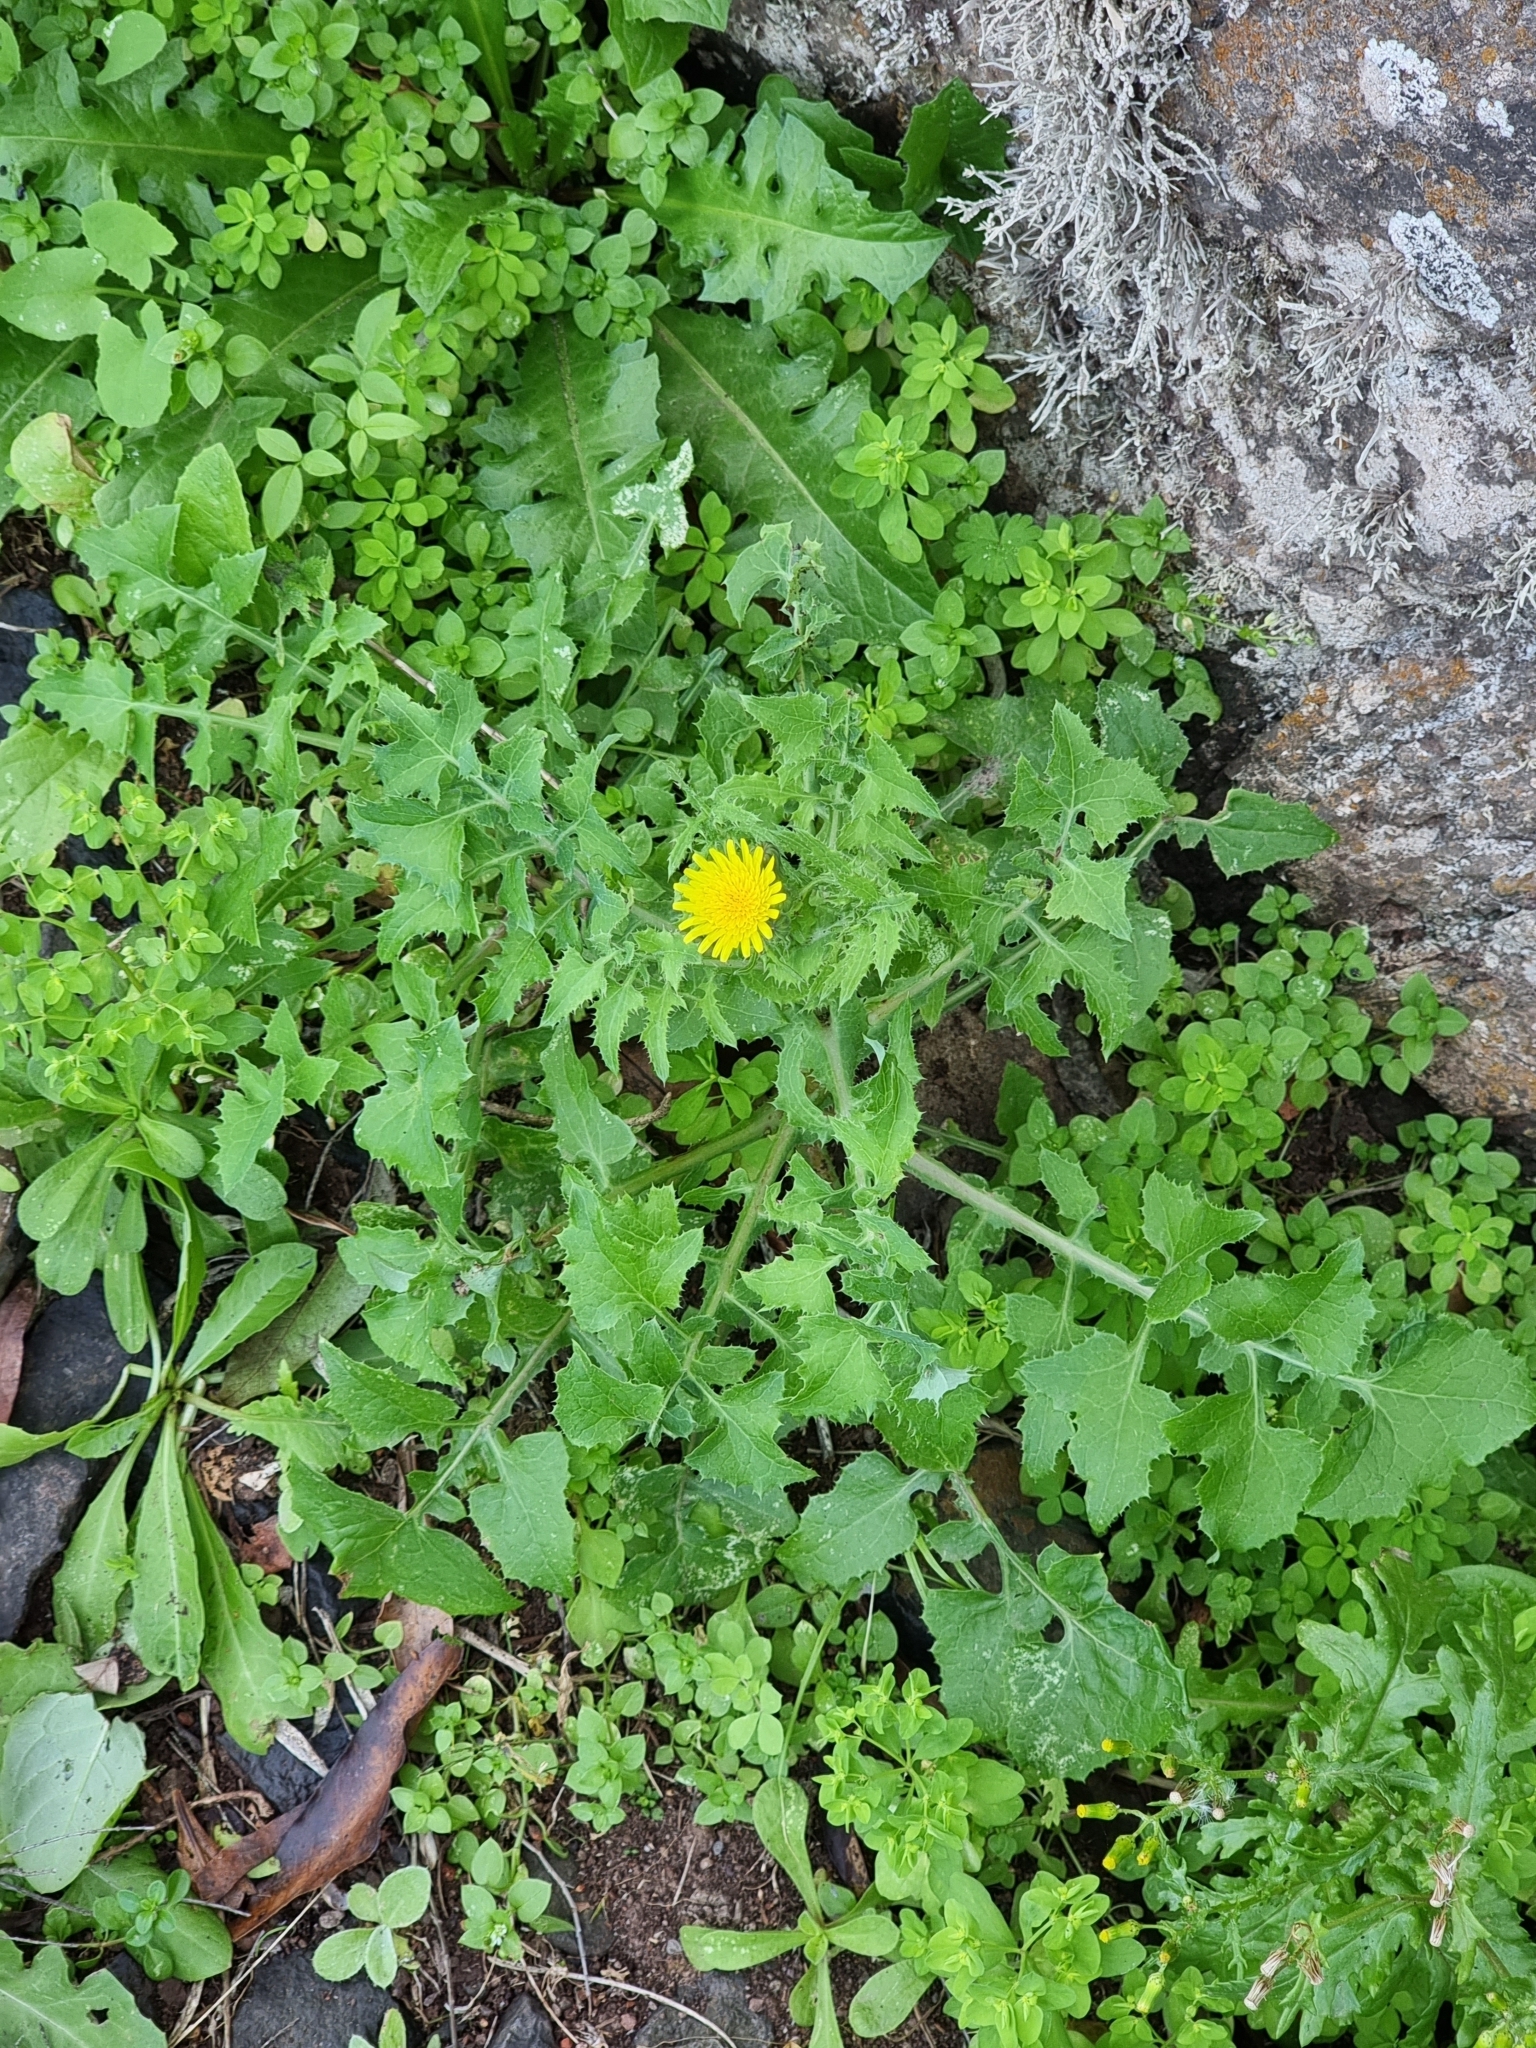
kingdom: Plantae
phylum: Tracheophyta
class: Magnoliopsida
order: Asterales
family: Asteraceae
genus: Sonchus
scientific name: Sonchus asper
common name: Prickly sow-thistle
